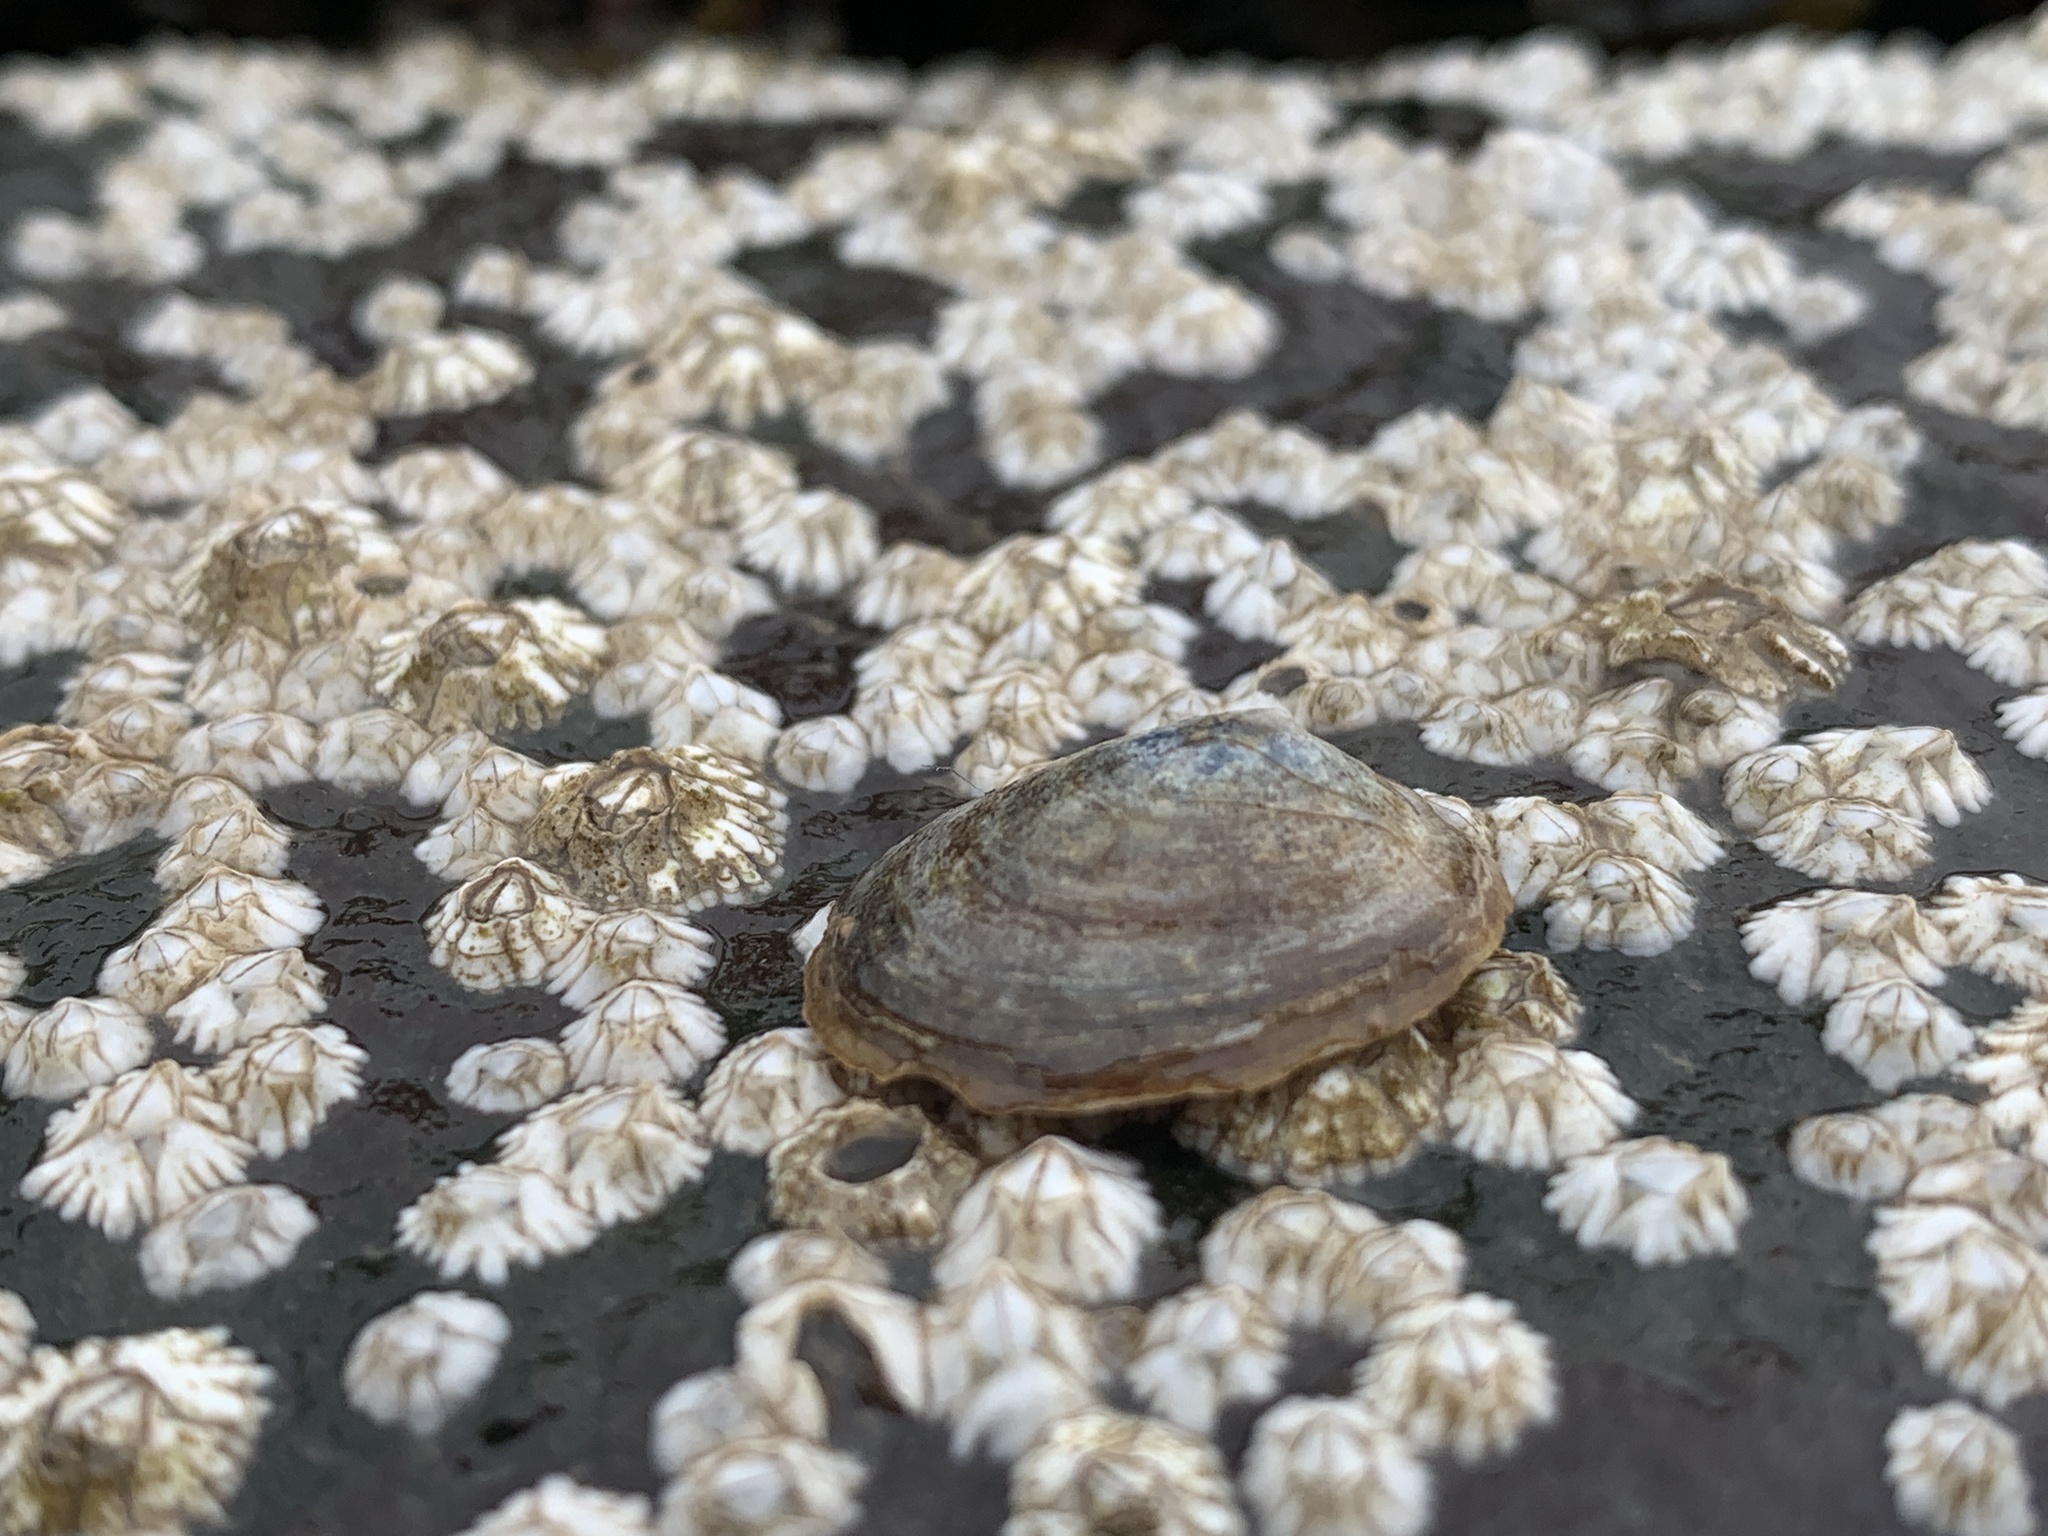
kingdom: Animalia
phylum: Mollusca
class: Gastropoda
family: Lottiidae
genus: Testudinalia
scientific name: Testudinalia testudinalis
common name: Common tortoiseshell limpet
